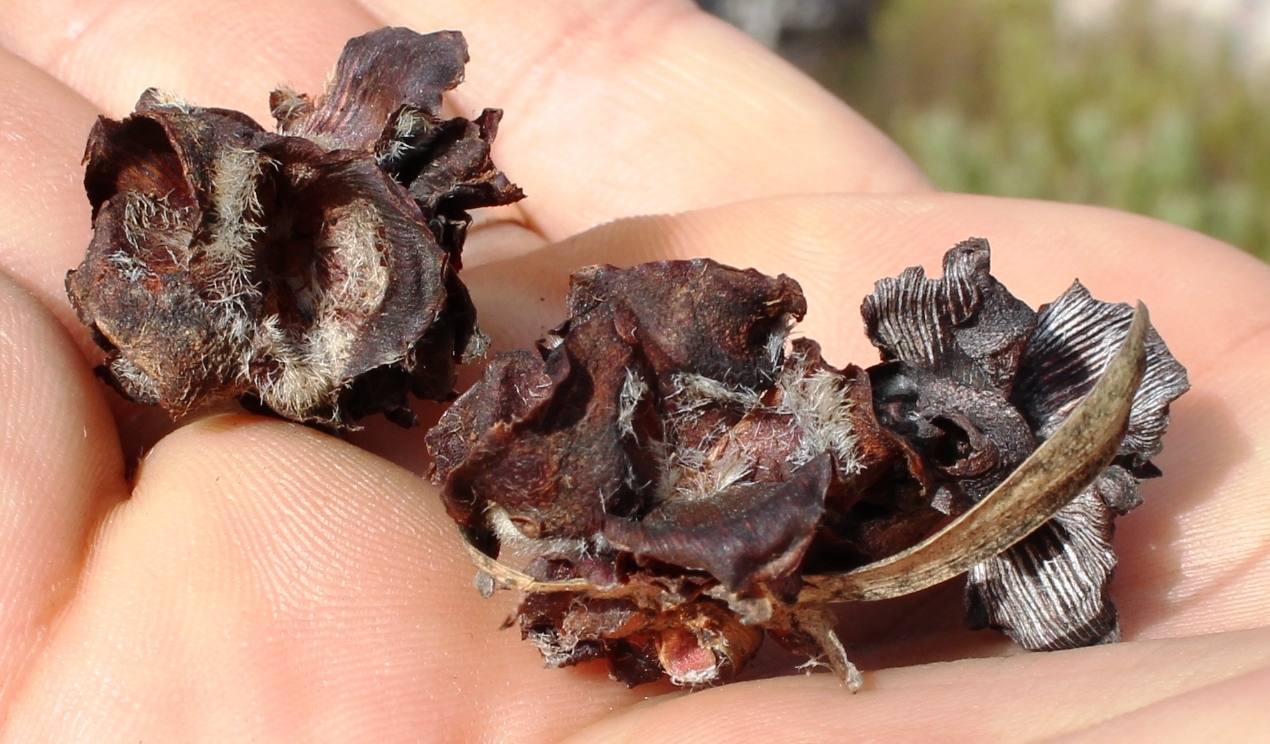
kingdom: Plantae
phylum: Tracheophyta
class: Magnoliopsida
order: Proteales
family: Proteaceae
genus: Leucadendron
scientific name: Leucadendron glaberrimum
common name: Common oily conebush
